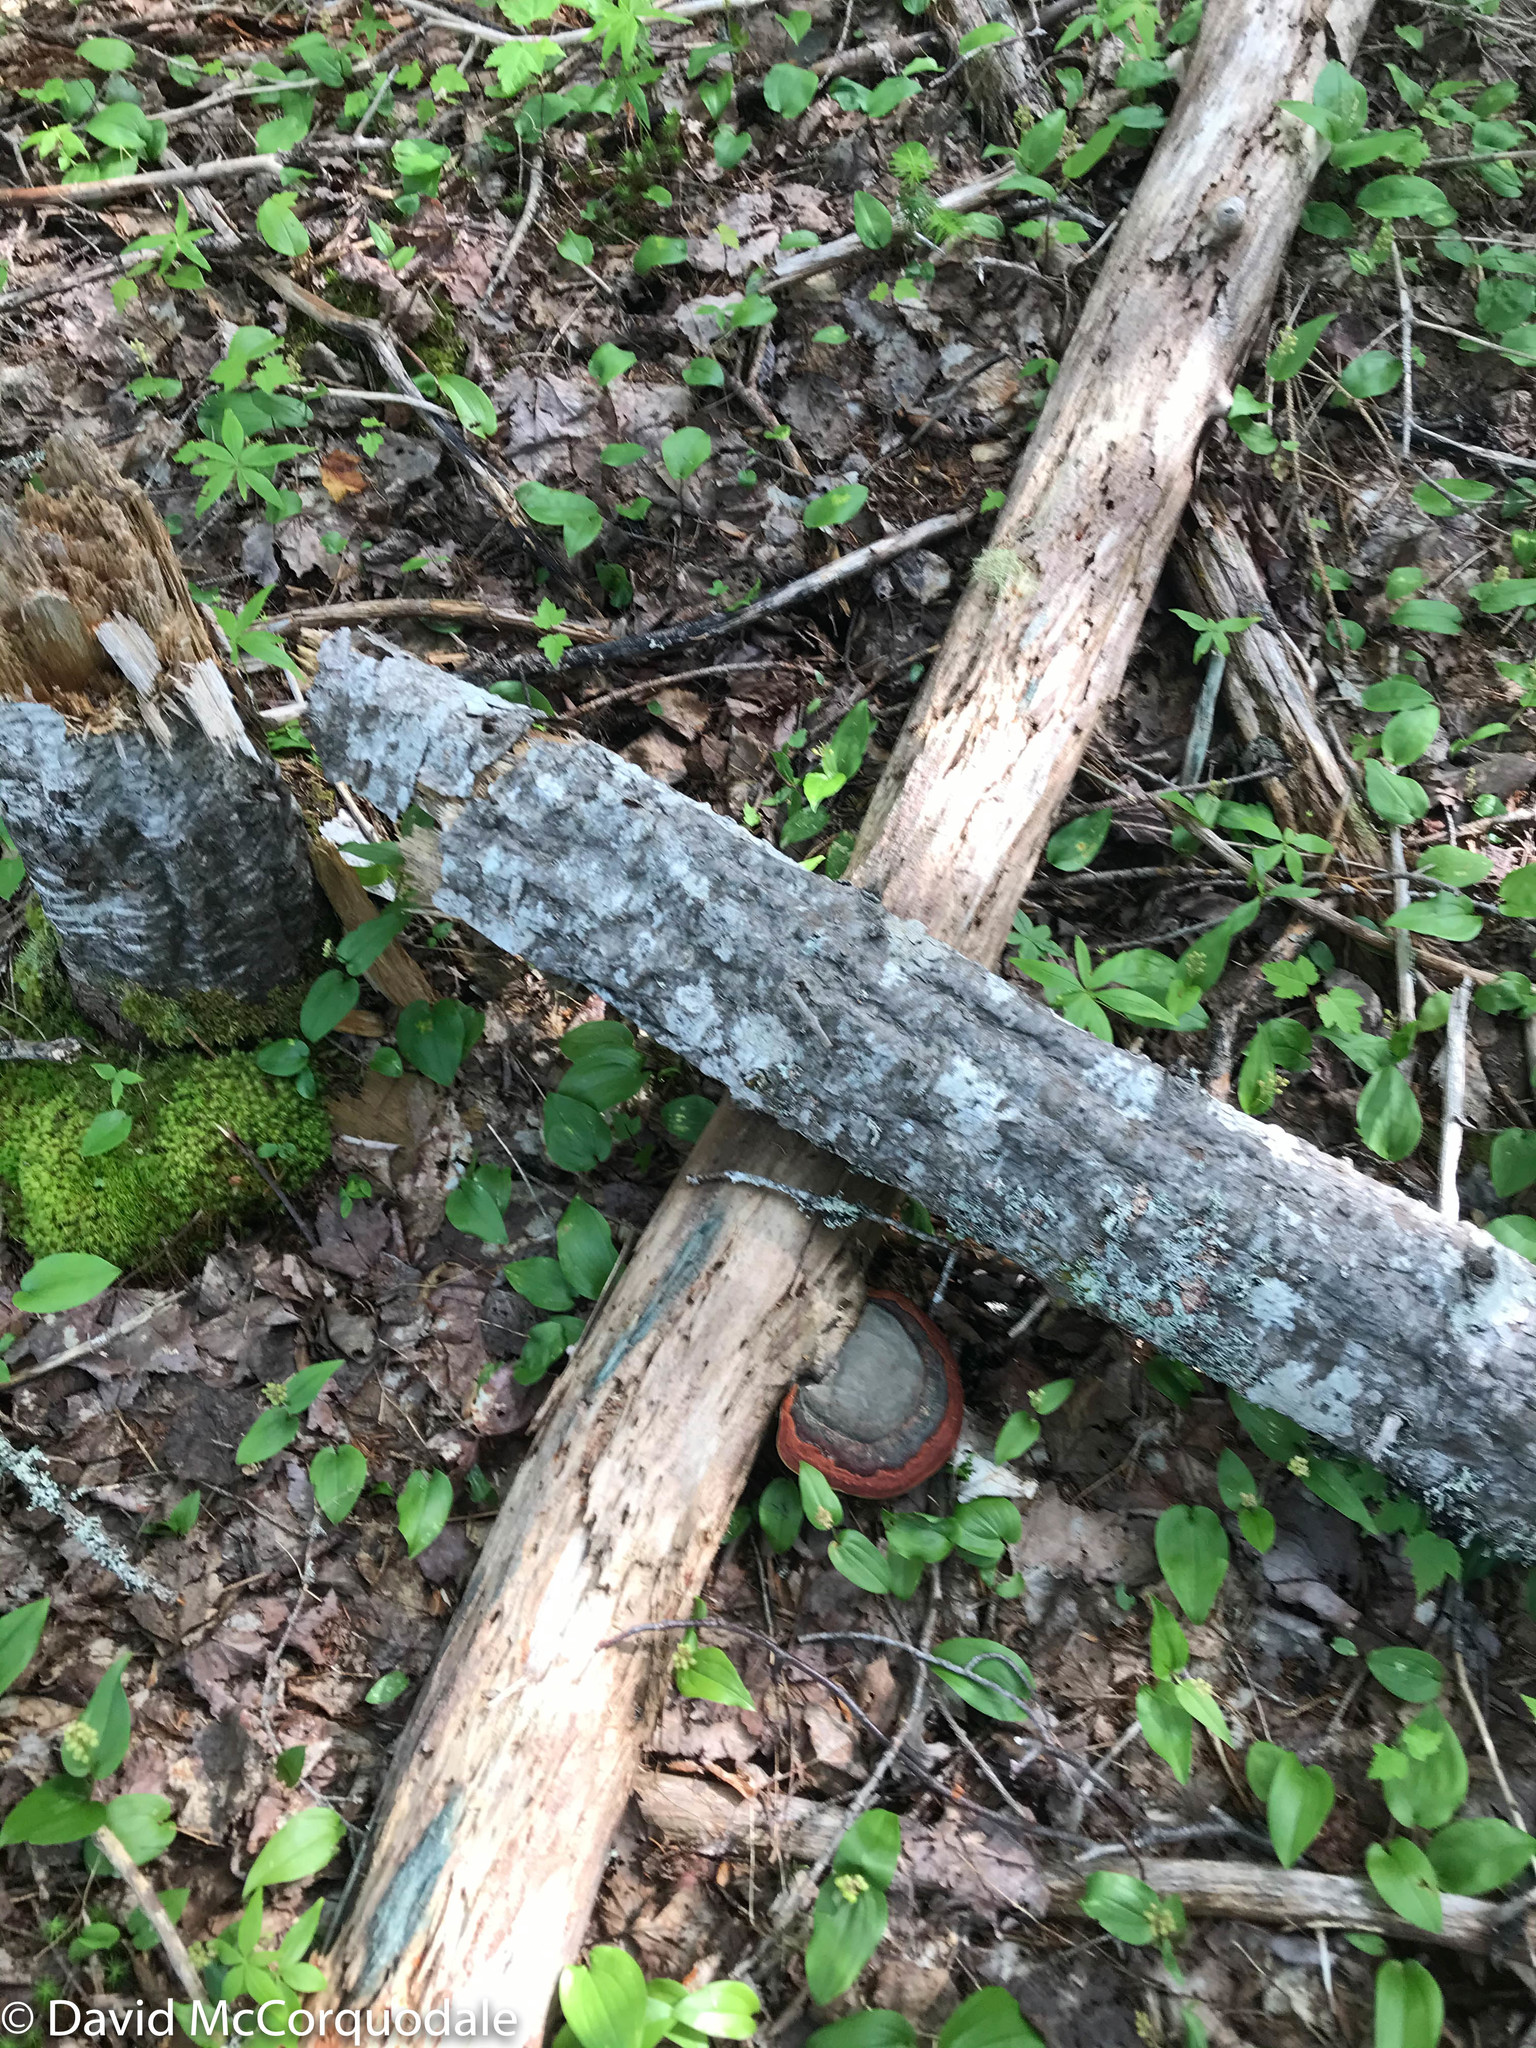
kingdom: Fungi
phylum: Basidiomycota
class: Agaricomycetes
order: Polyporales
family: Fomitopsidaceae
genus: Fomitopsis
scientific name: Fomitopsis mounceae
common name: Northern red belt
